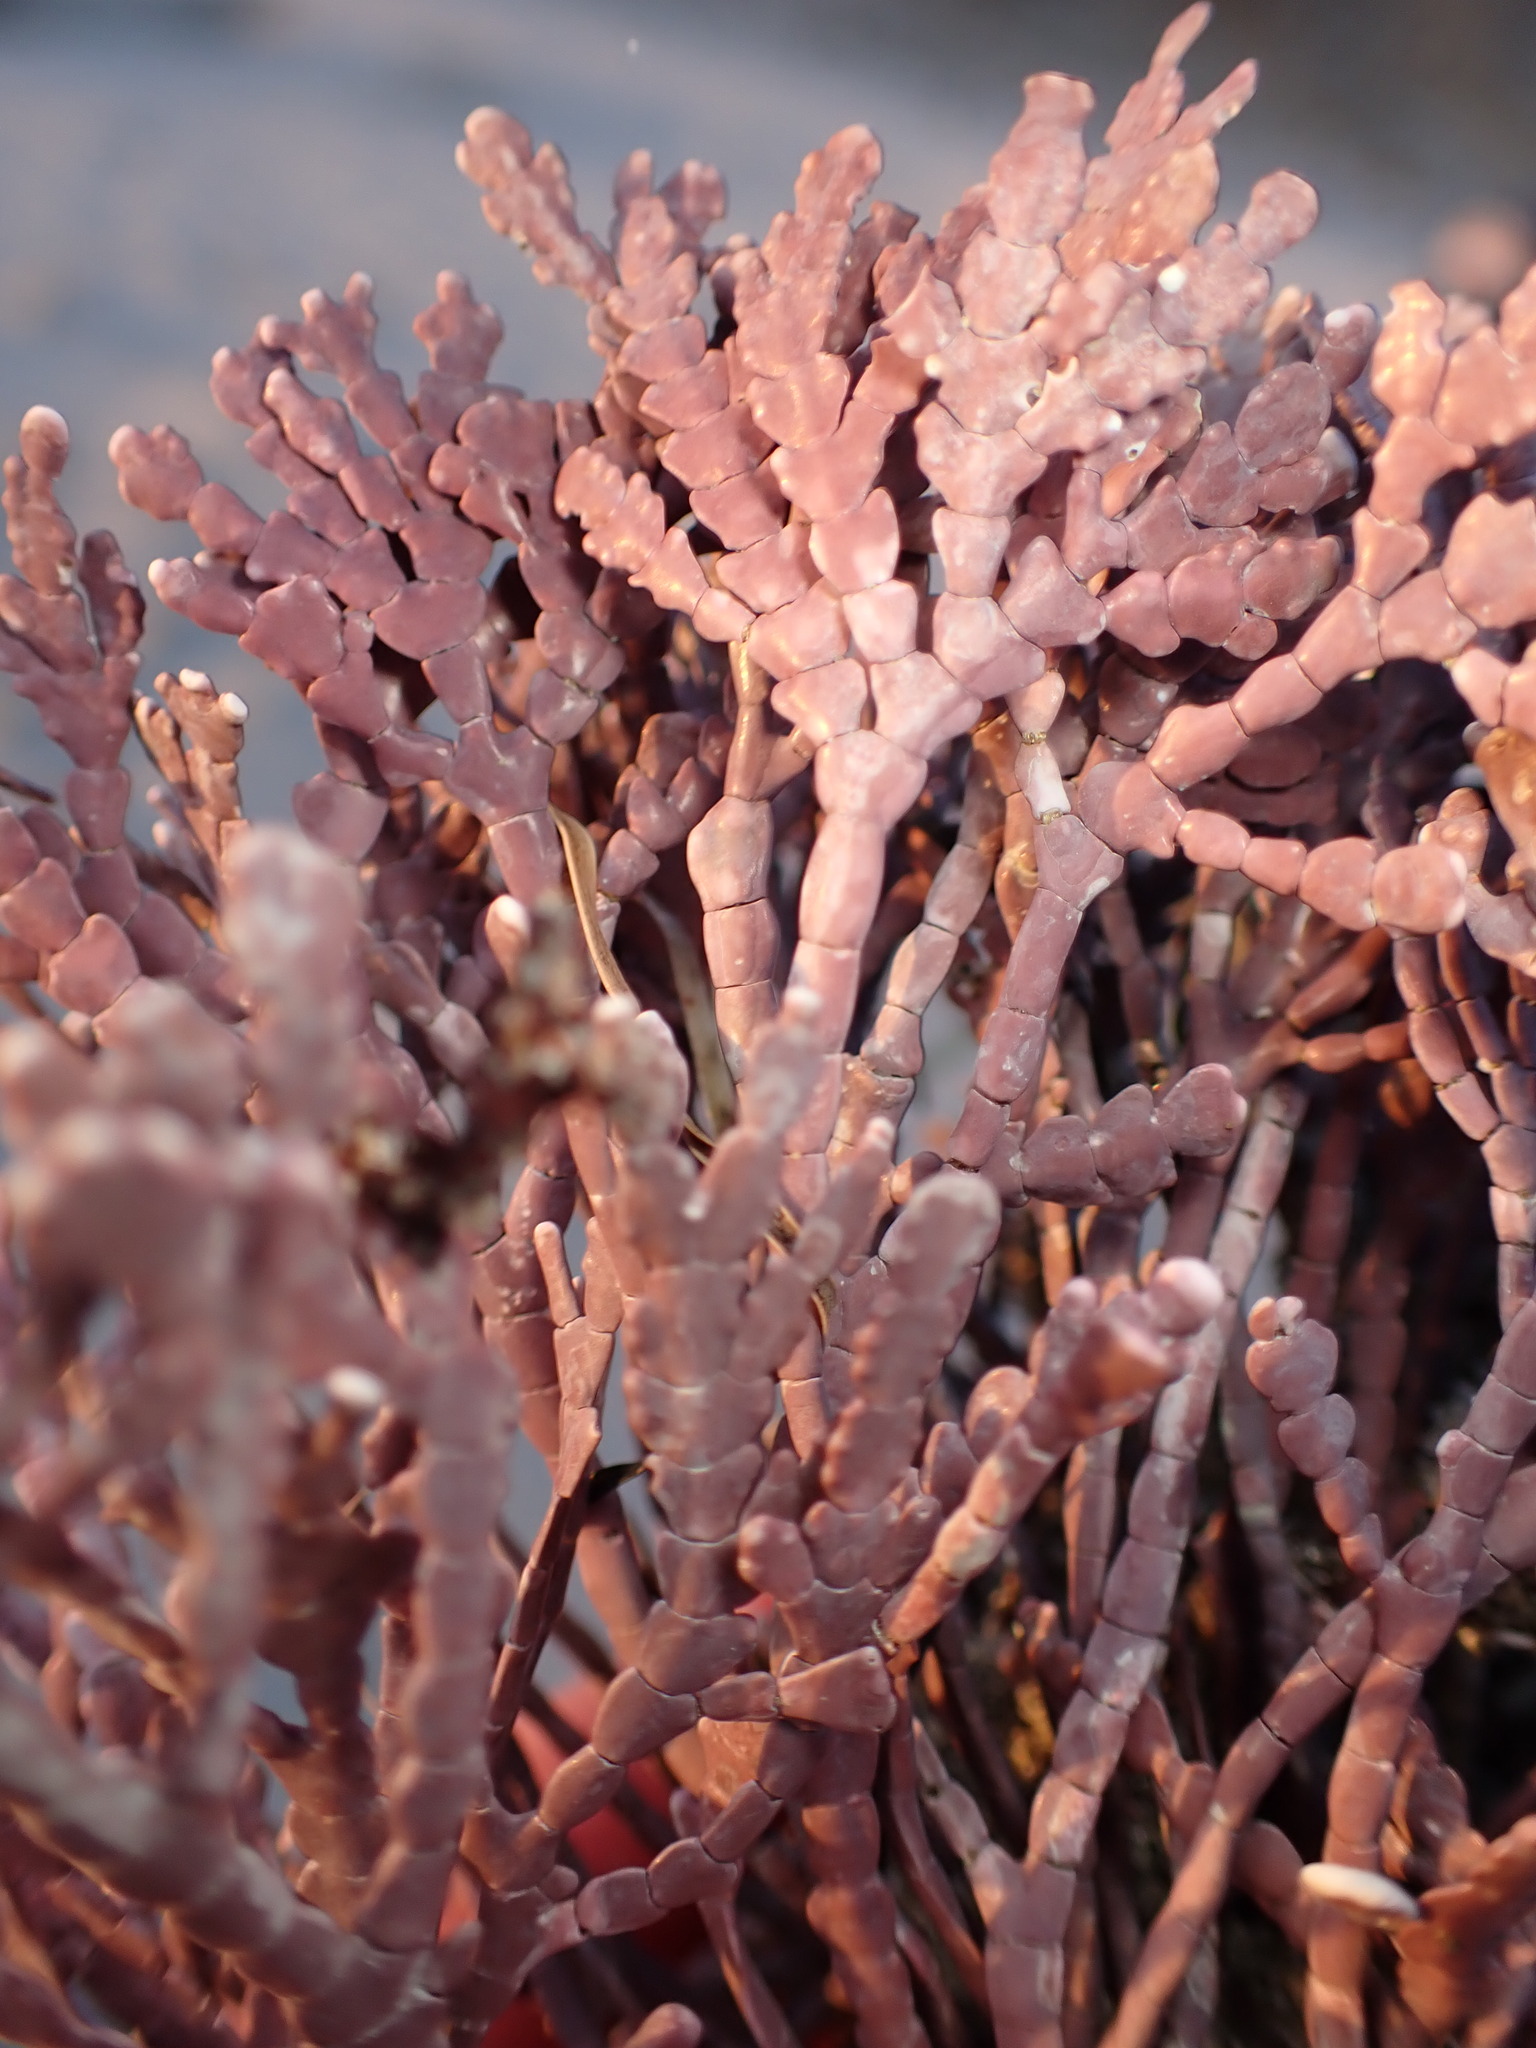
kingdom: Plantae
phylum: Rhodophyta
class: Florideophyceae
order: Corallinales
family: Corallinaceae
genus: Calliarthron
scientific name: Calliarthron tuberculosum
